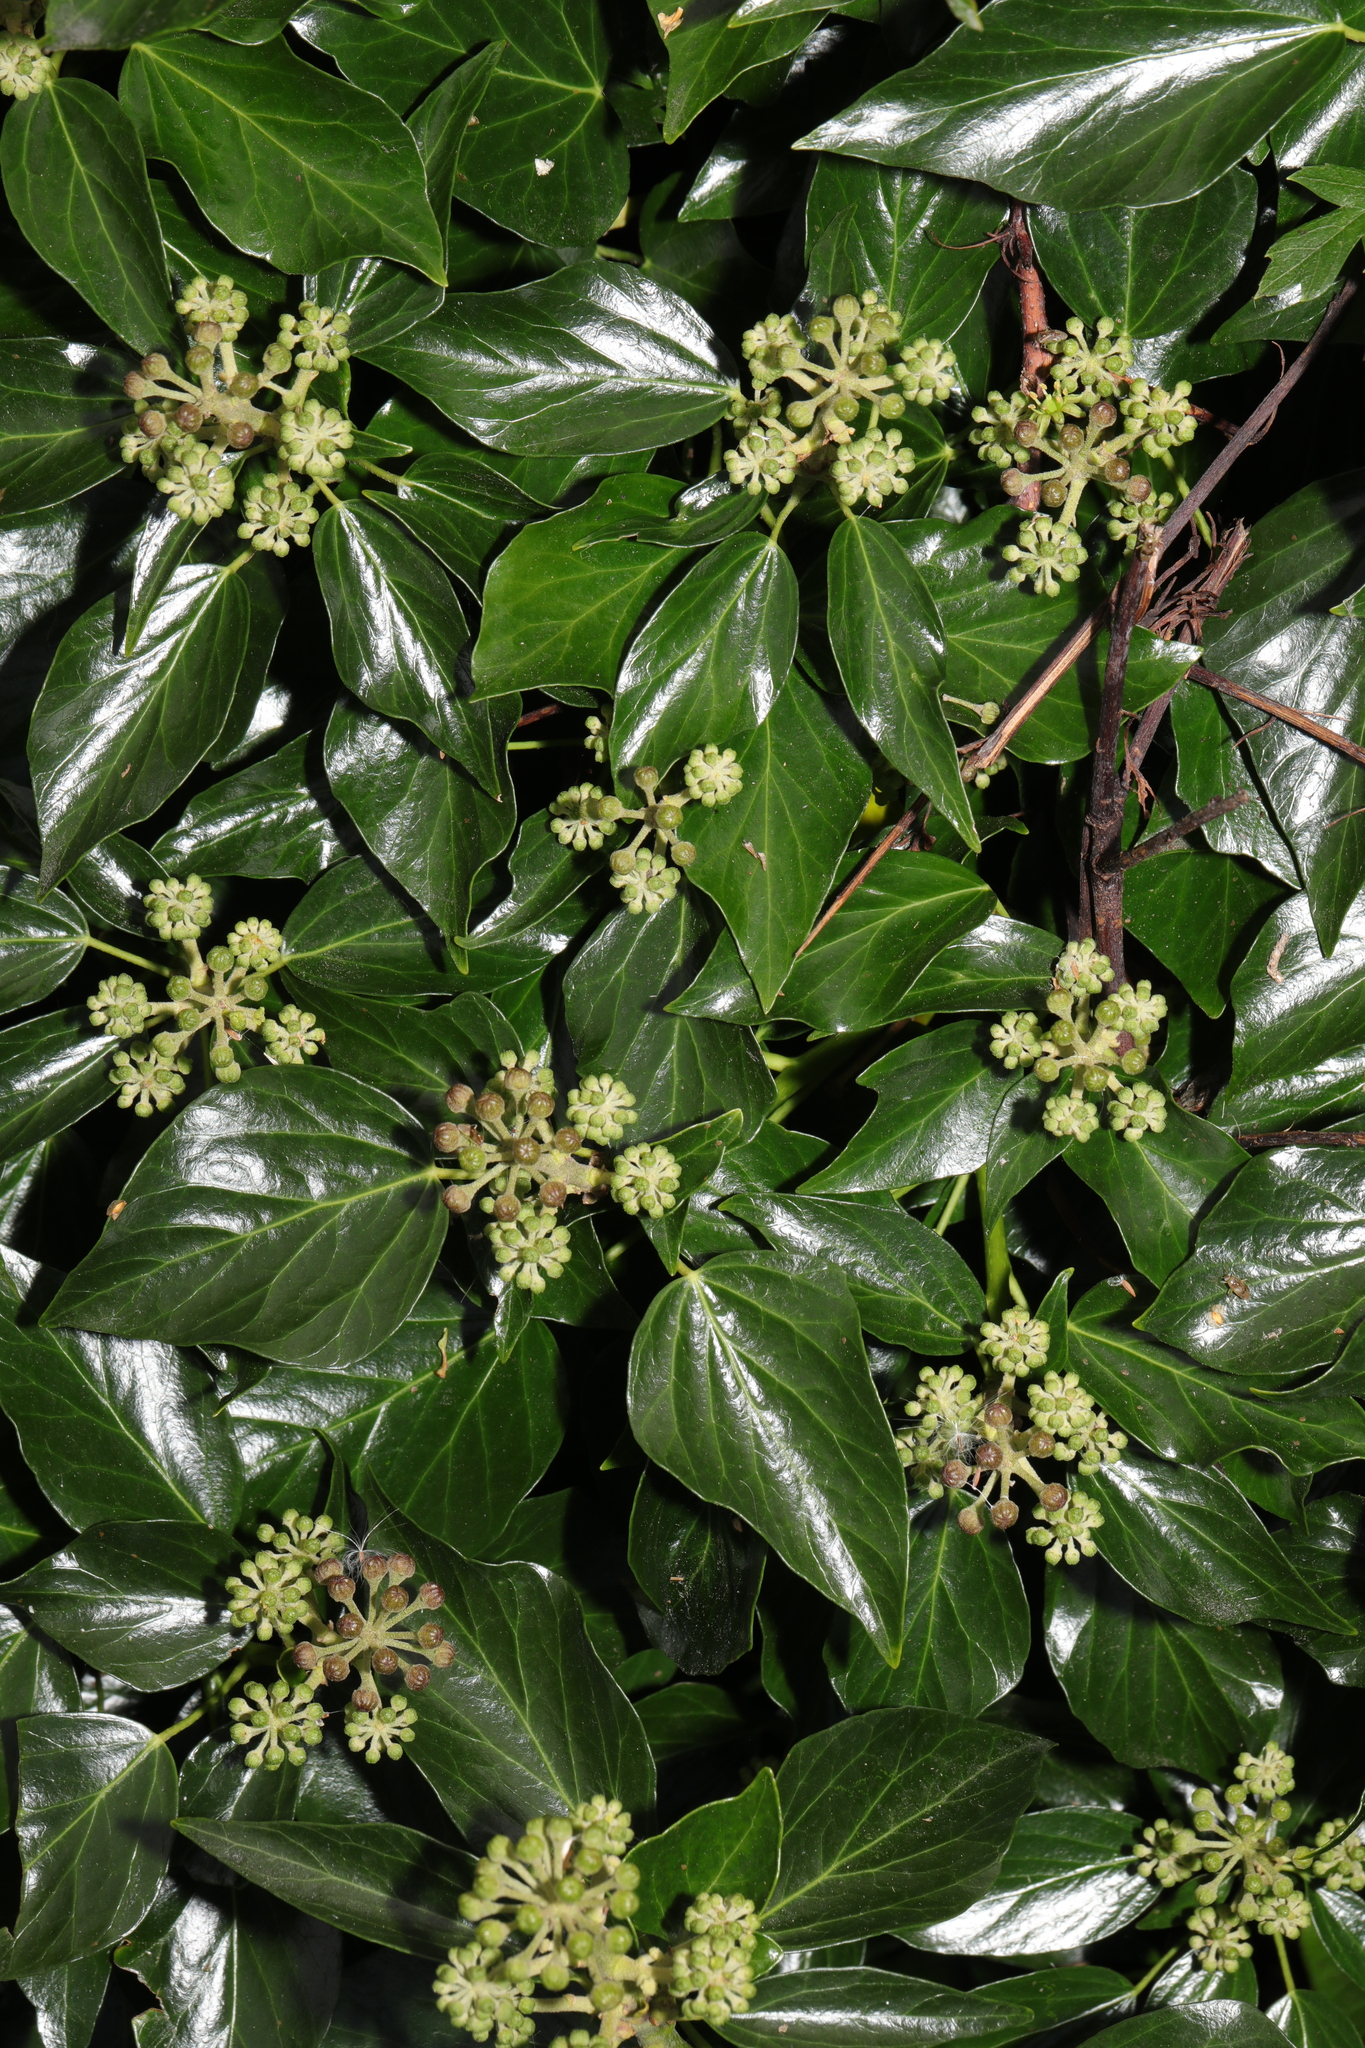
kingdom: Plantae
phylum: Tracheophyta
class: Magnoliopsida
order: Apiales
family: Araliaceae
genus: Hedera
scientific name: Hedera helix
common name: Ivy
